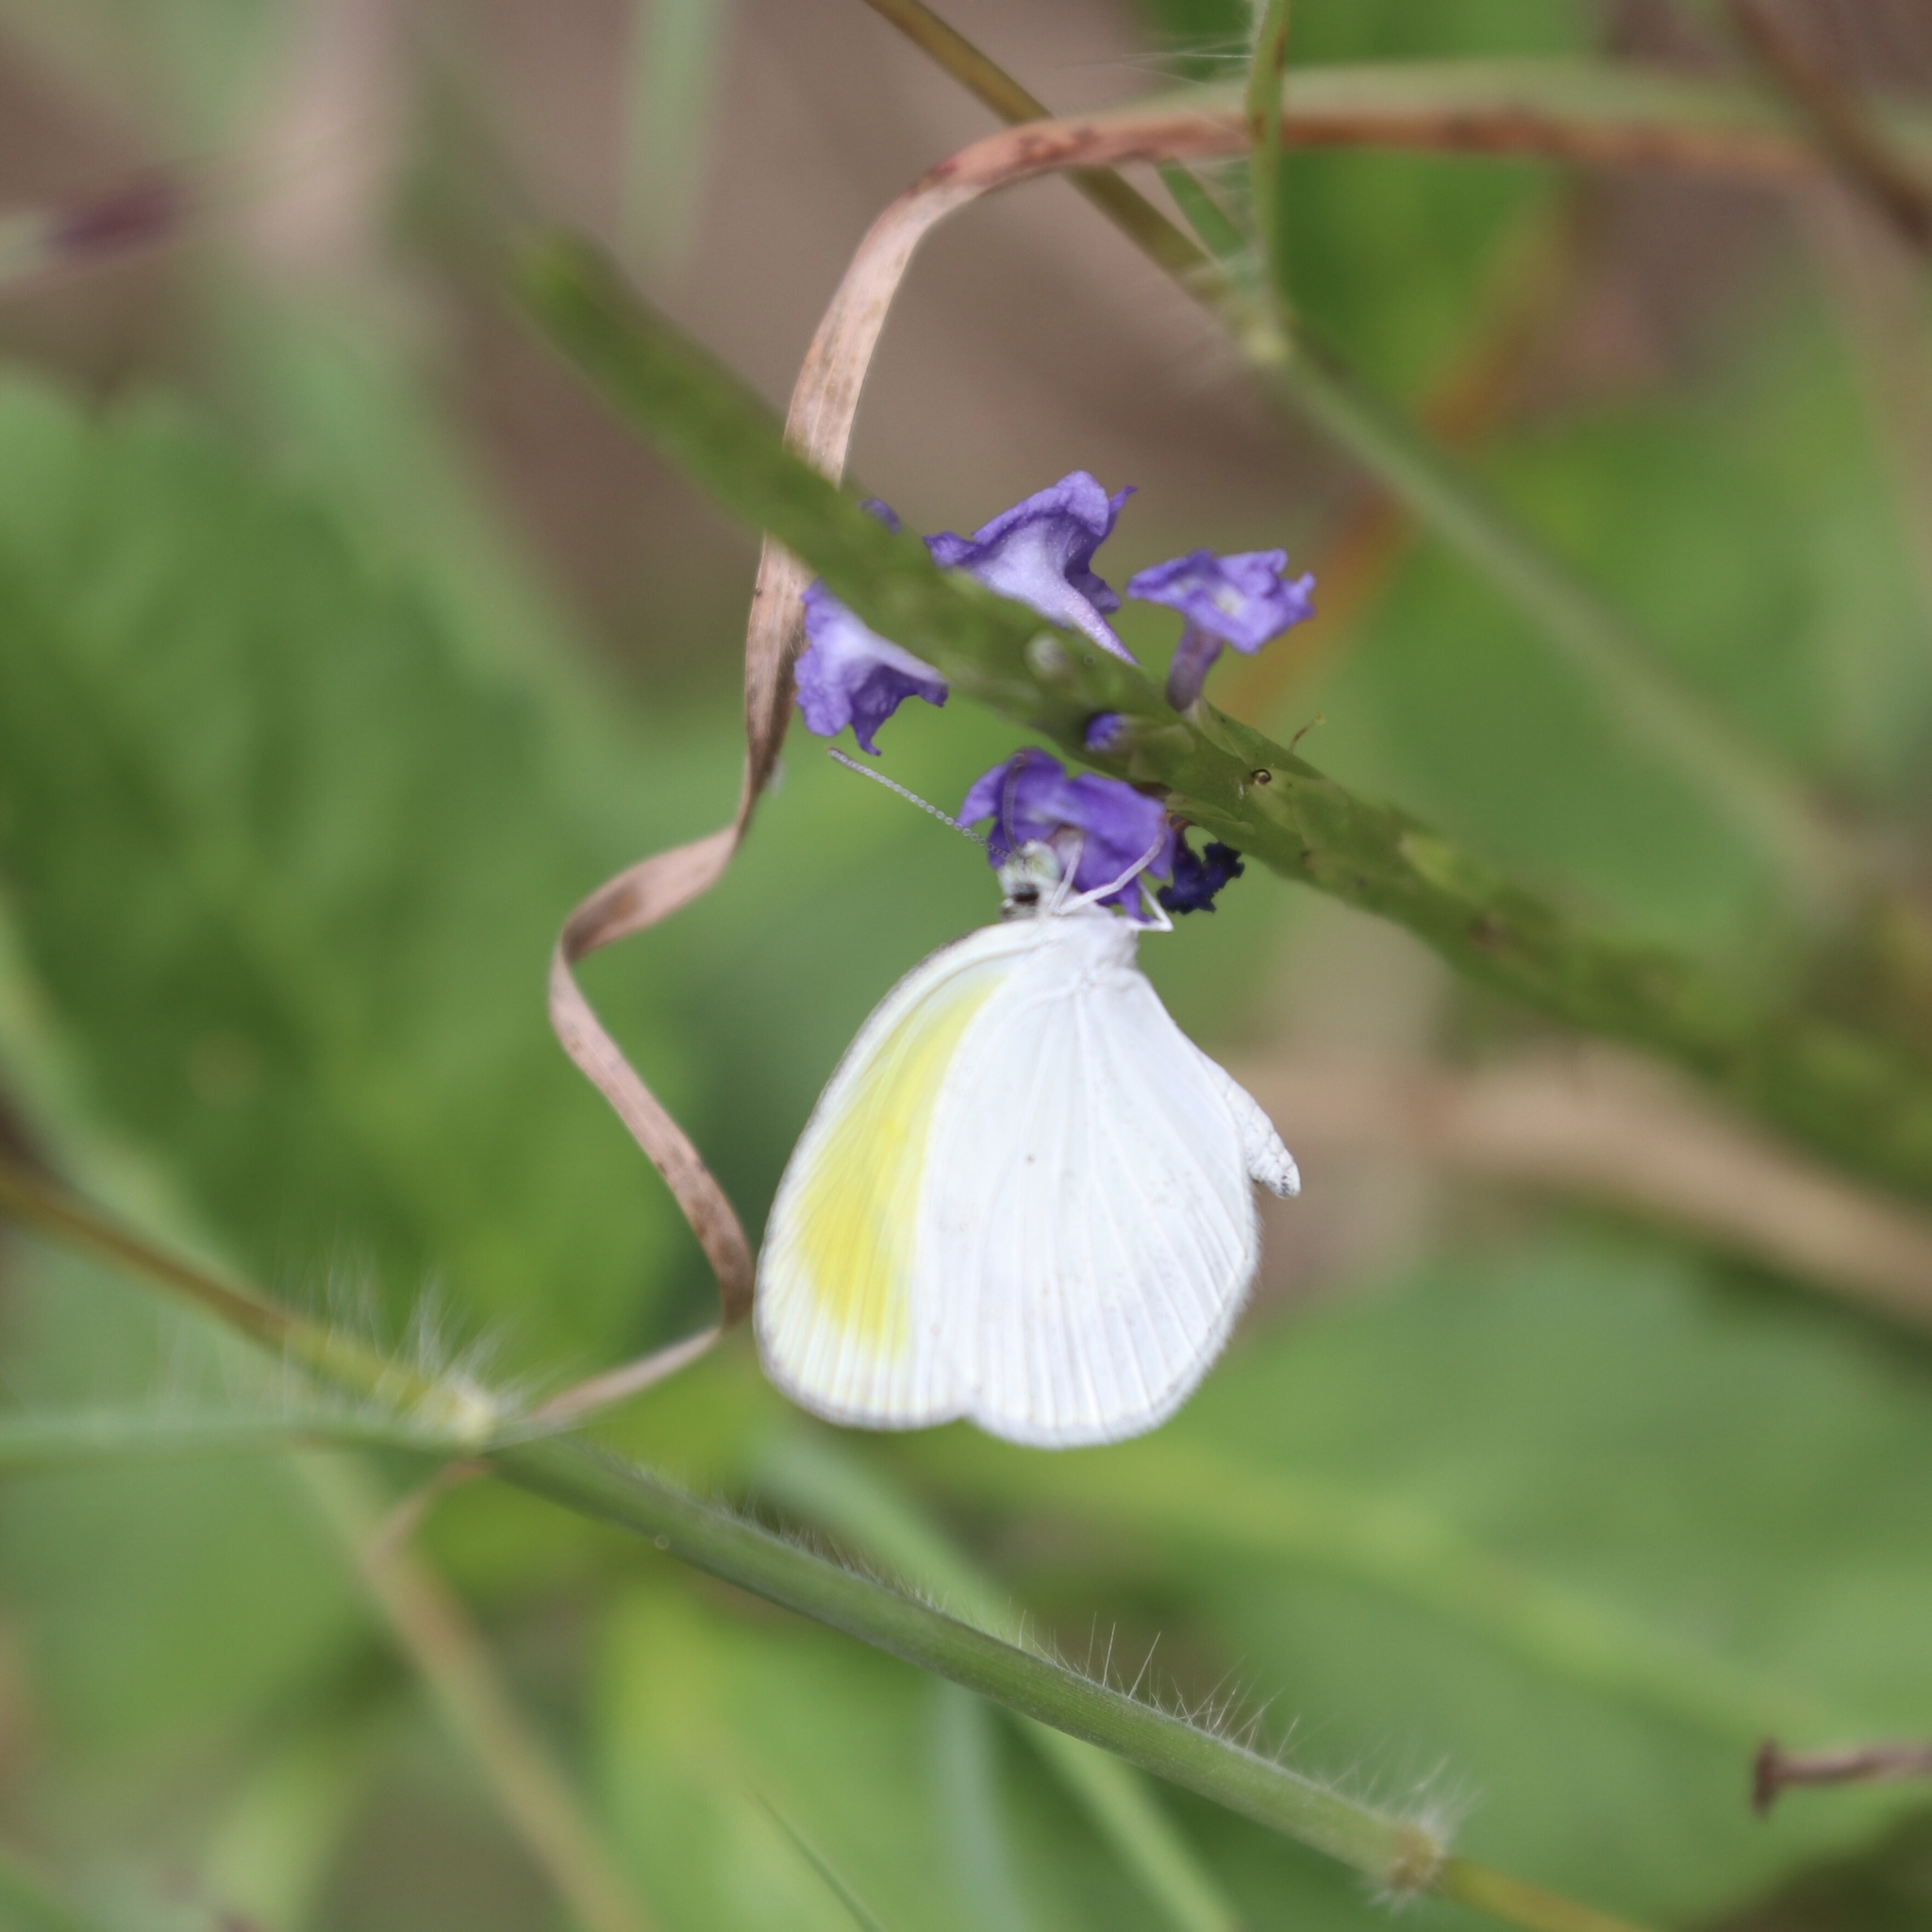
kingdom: Animalia
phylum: Arthropoda
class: Insecta
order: Lepidoptera
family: Pieridae
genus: Eurema
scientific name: Eurema daira
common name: Barred sulphur
